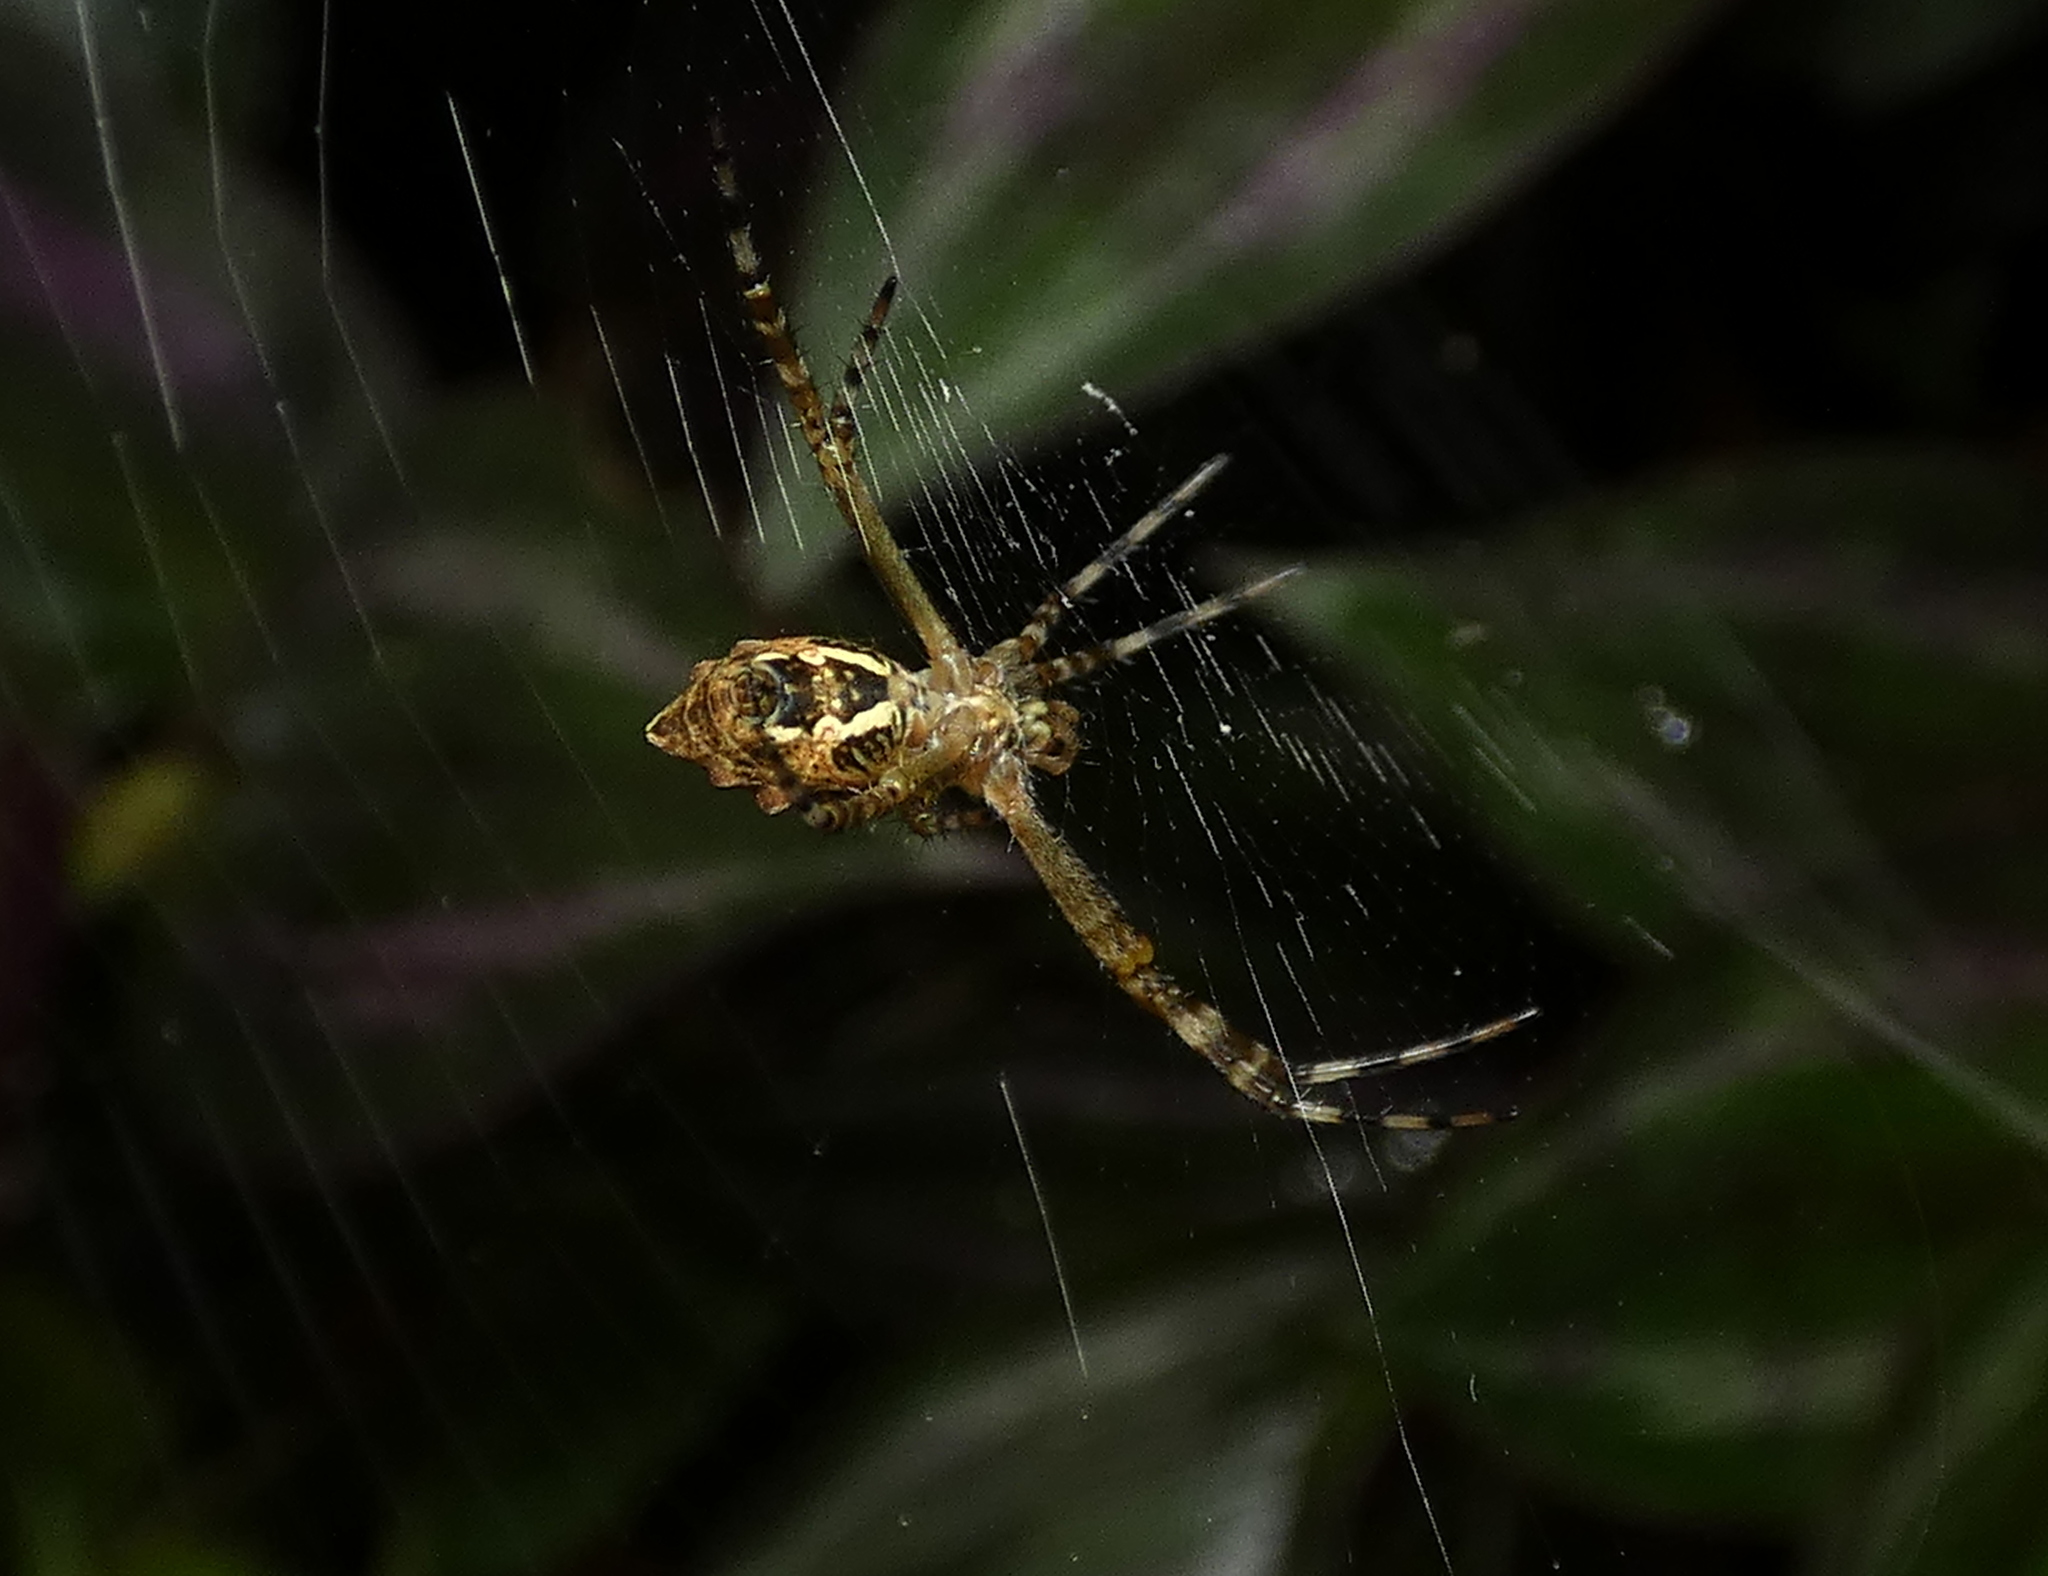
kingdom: Animalia
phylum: Arthropoda
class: Arachnida
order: Araneae
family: Araneidae
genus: Argiope
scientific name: Argiope argentata
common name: Orb weavers
